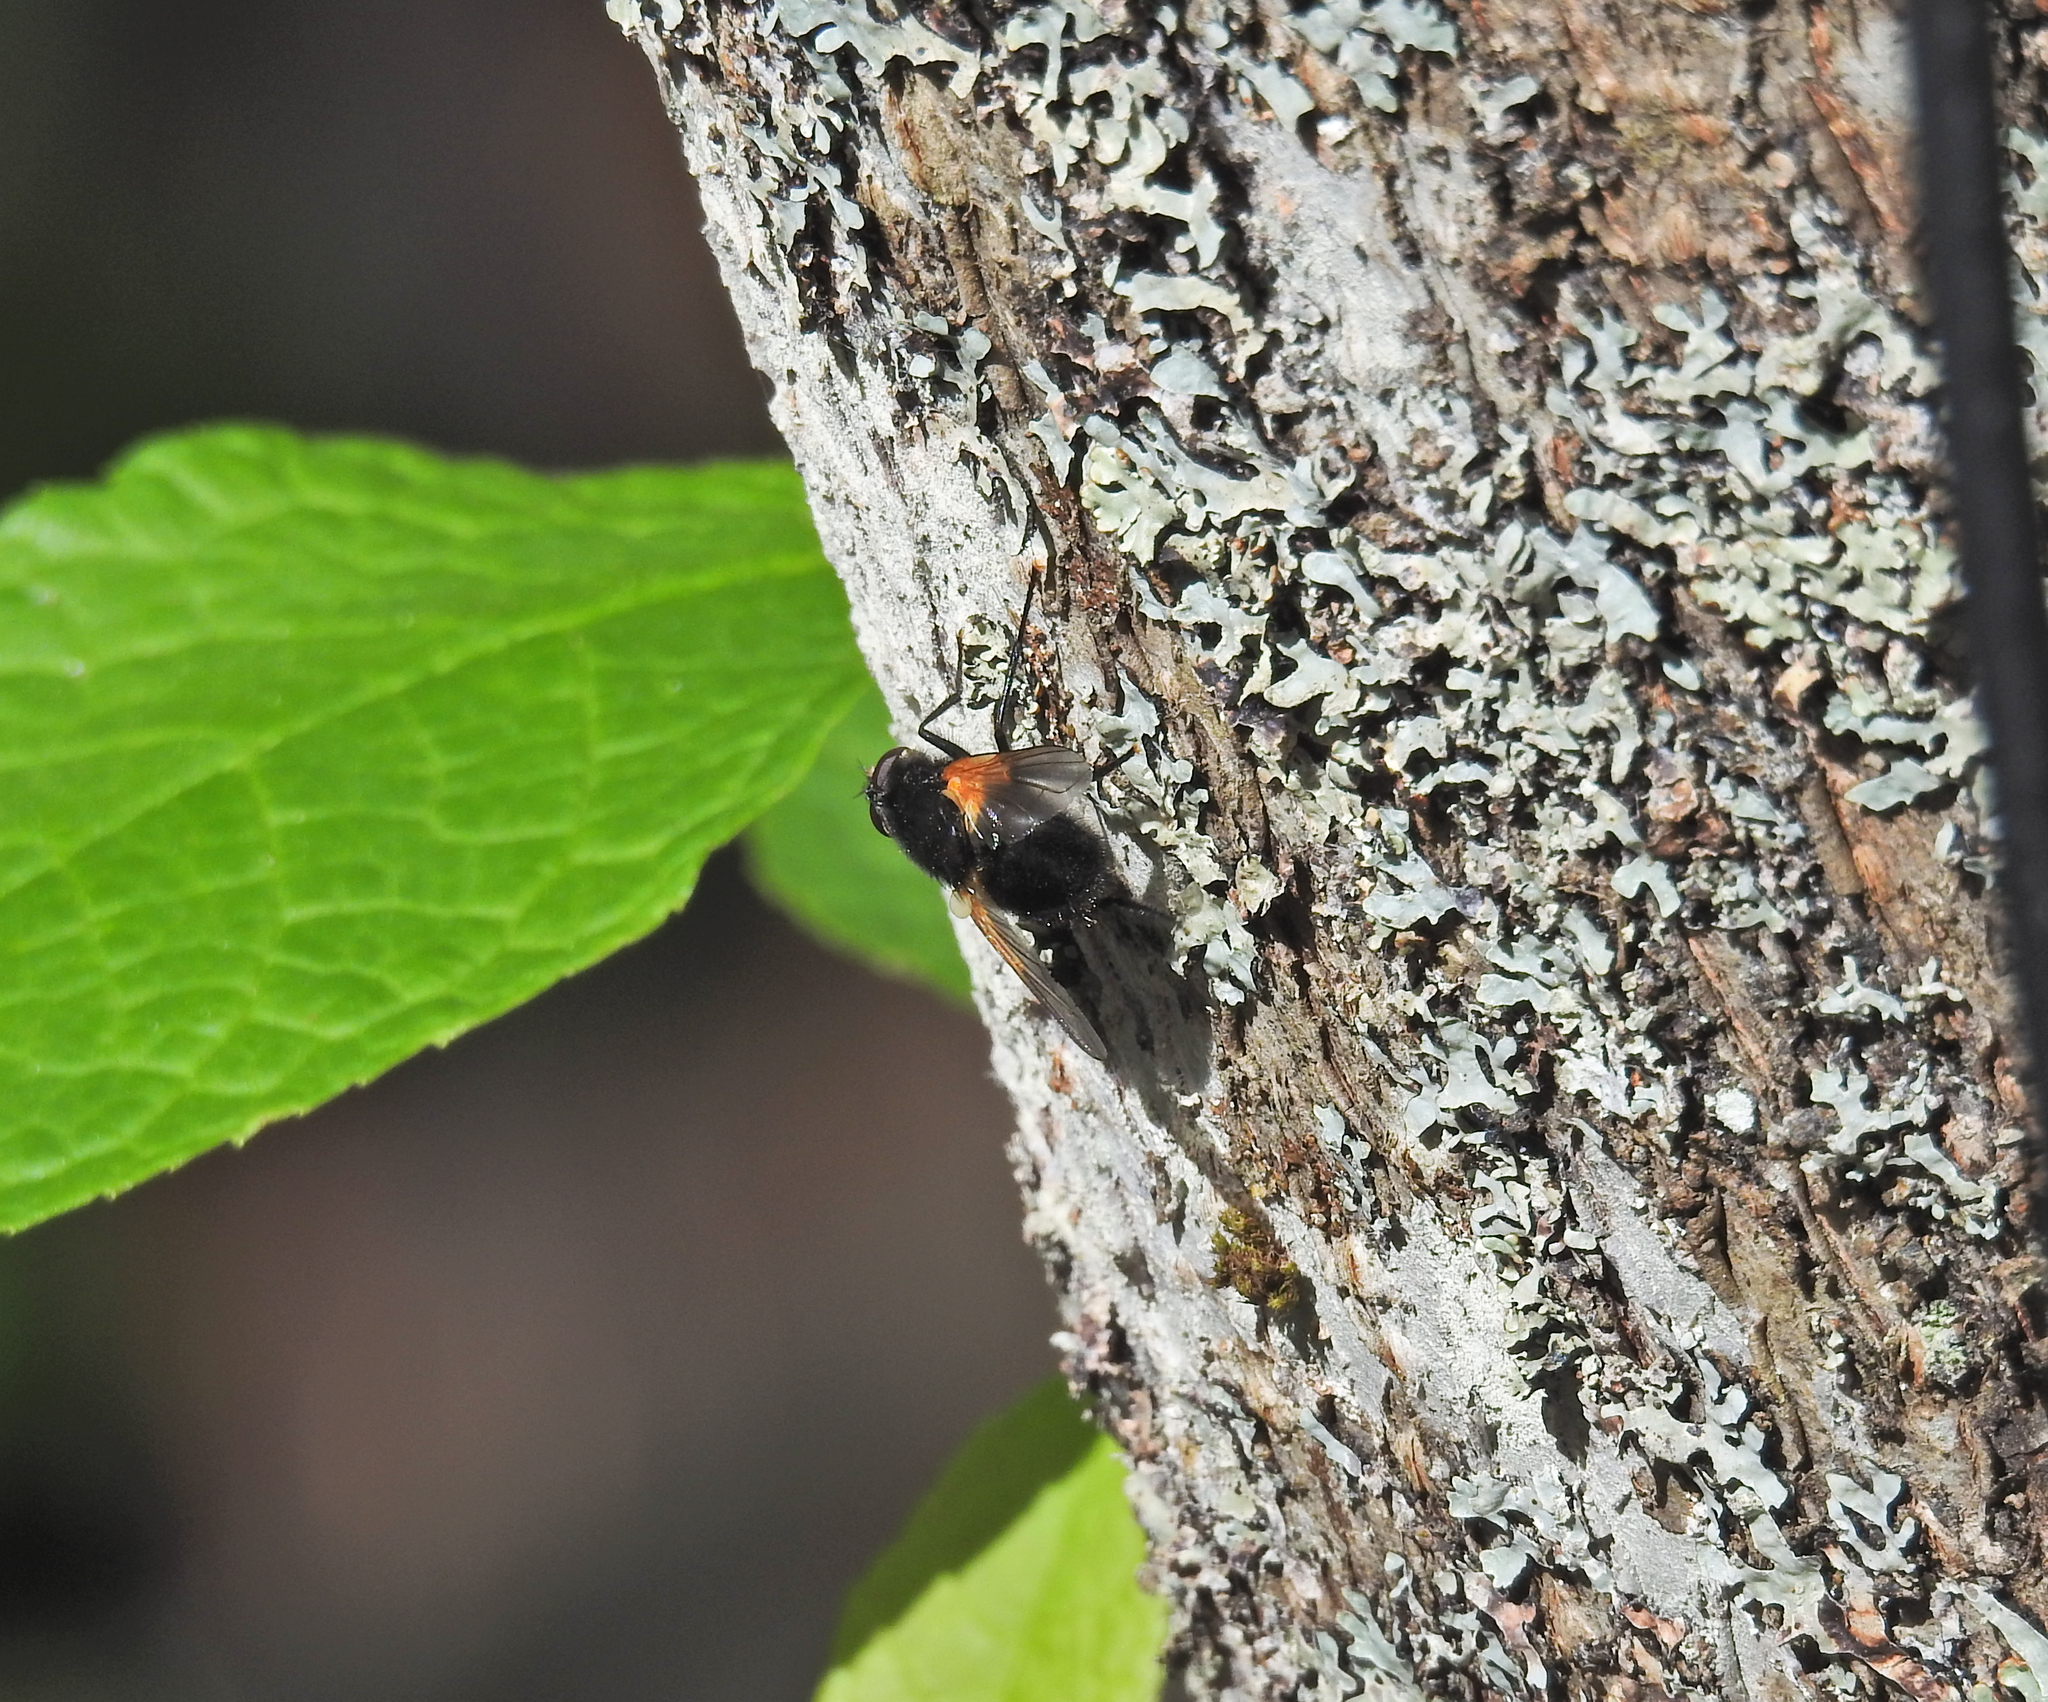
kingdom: Animalia
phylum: Arthropoda
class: Insecta
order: Diptera
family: Muscidae
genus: Mesembrina
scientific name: Mesembrina meridiana
